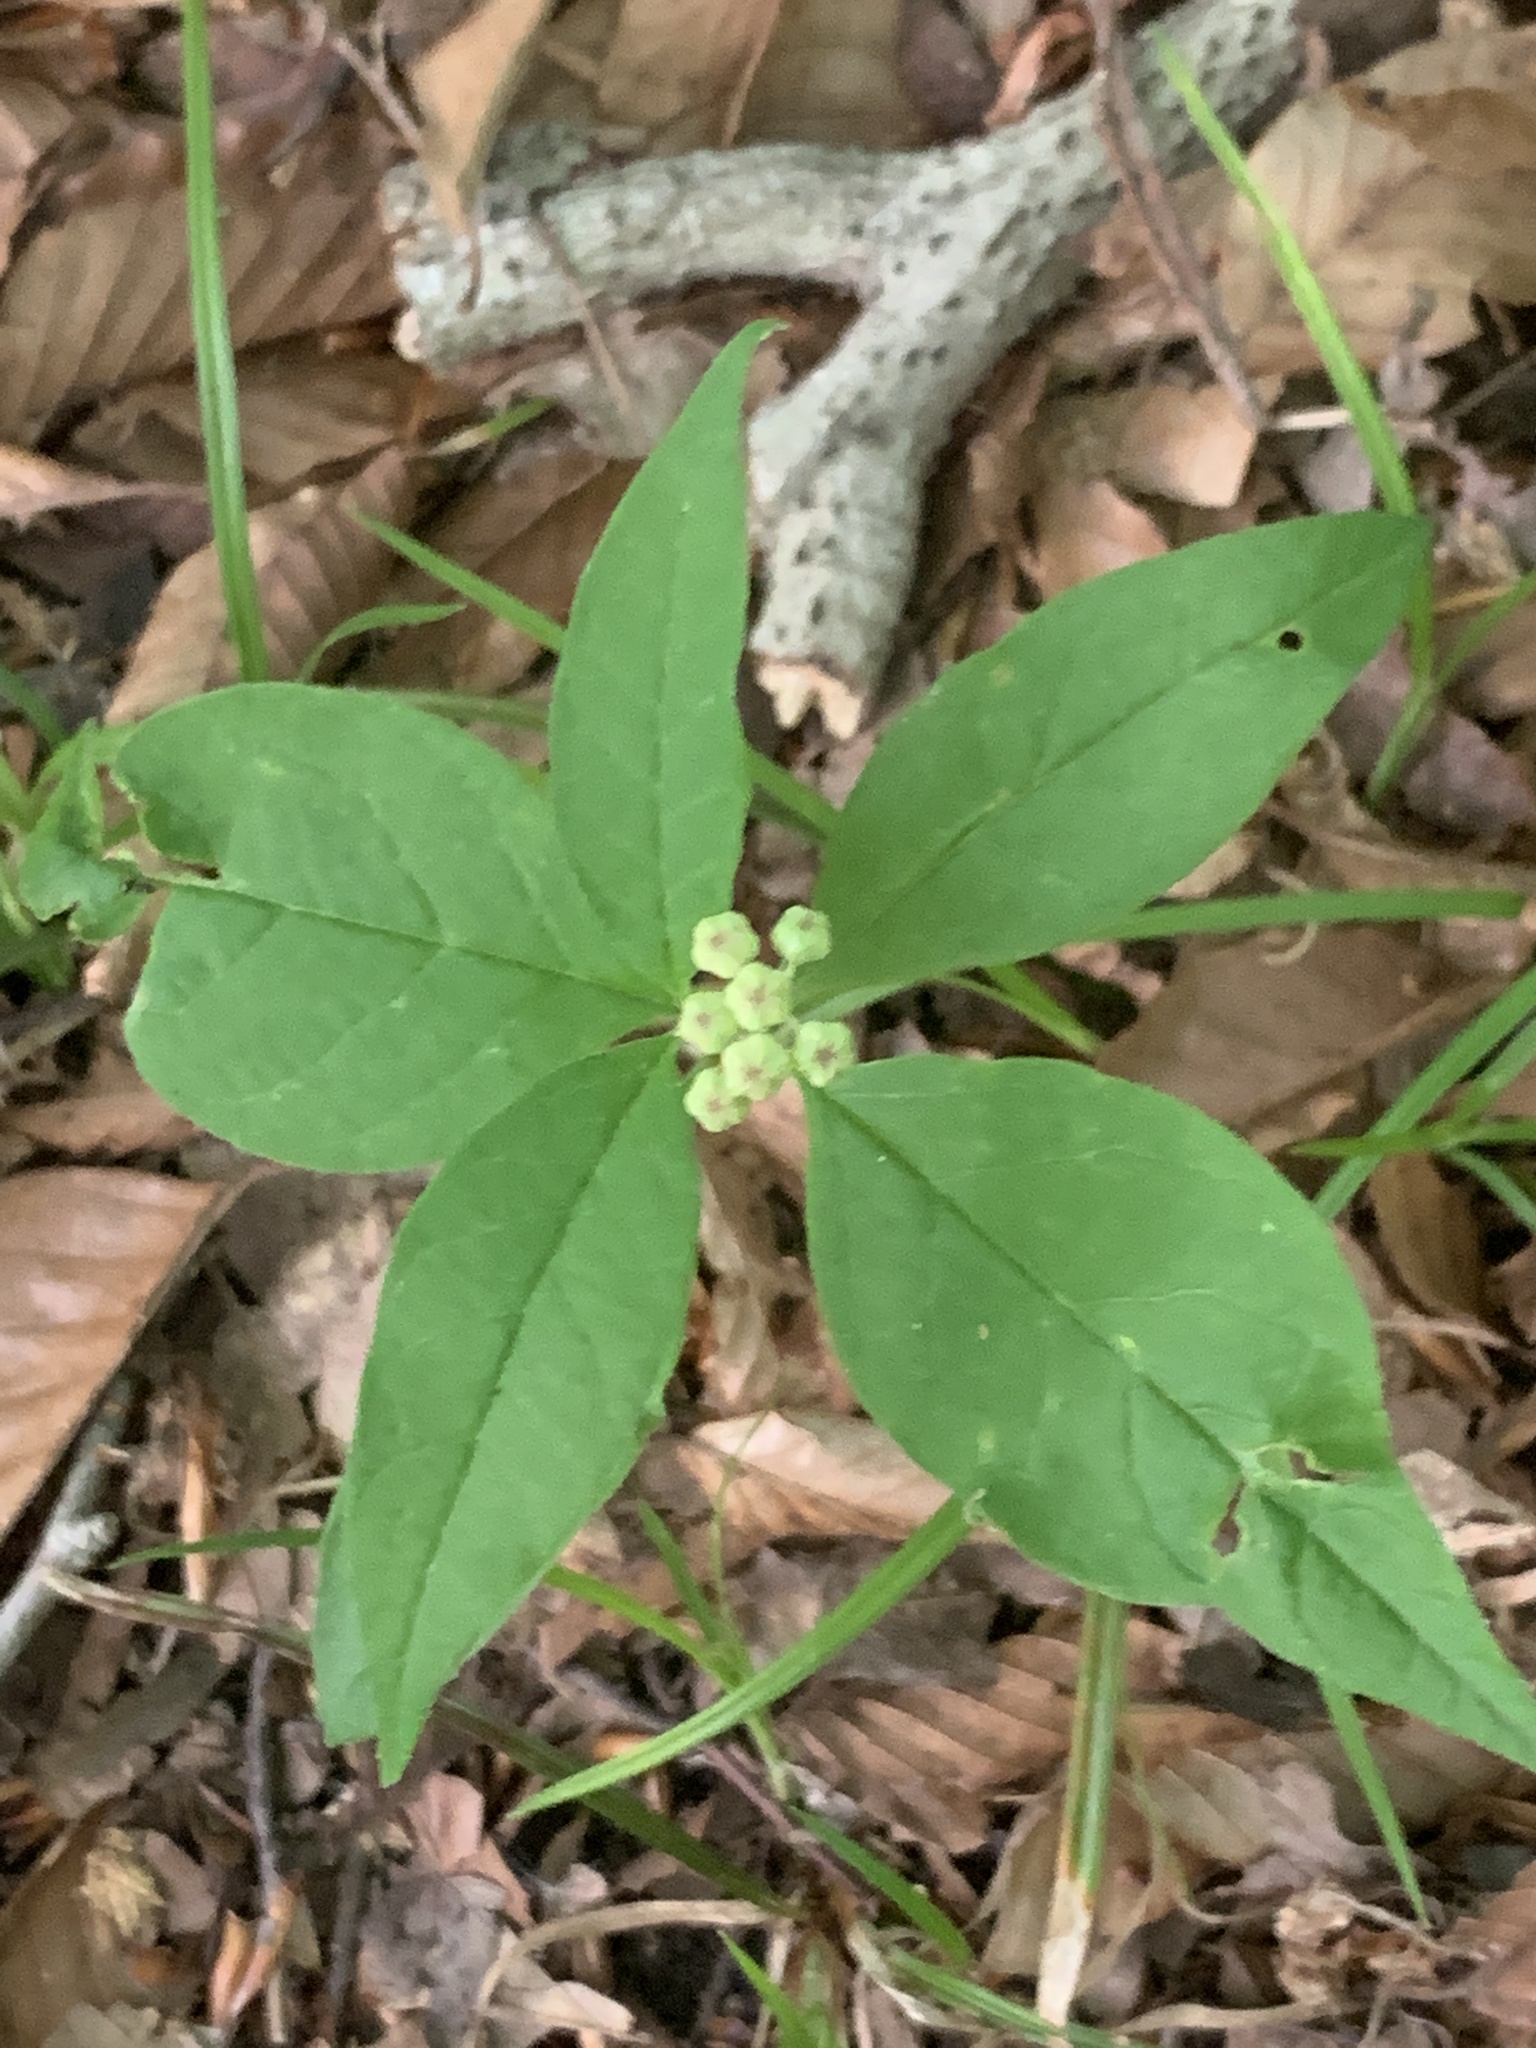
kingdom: Plantae
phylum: Tracheophyta
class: Magnoliopsida
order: Gentianales
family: Apocynaceae
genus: Asclepias
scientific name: Asclepias quadrifolia
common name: Whorled milkweed
